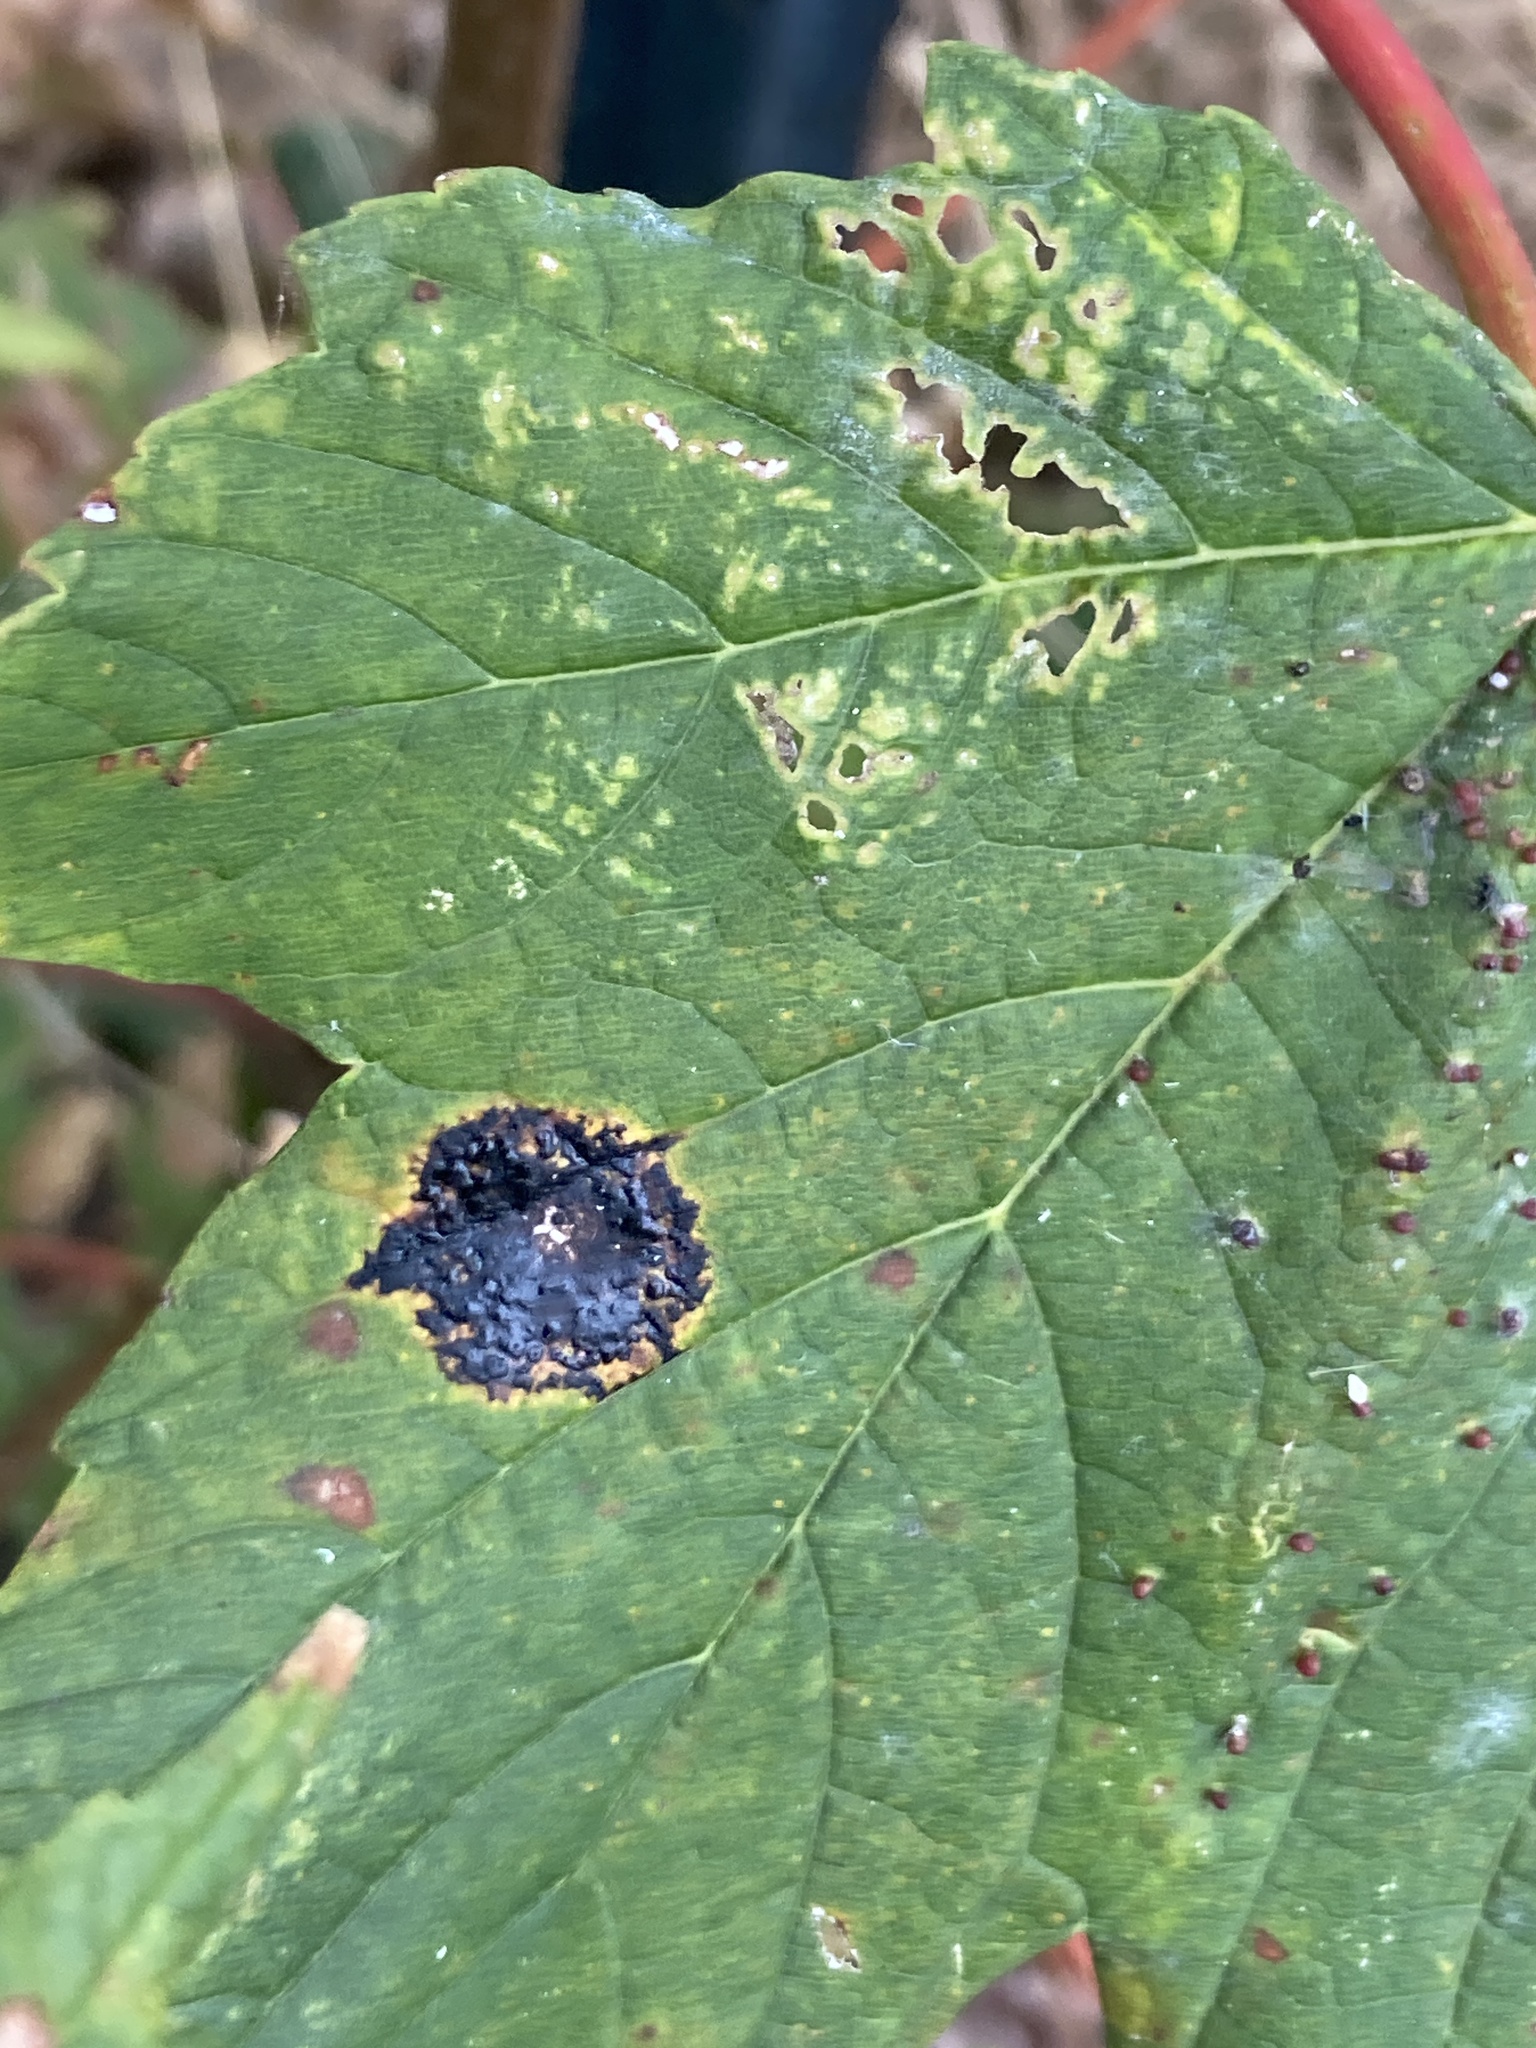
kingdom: Fungi
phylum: Ascomycota
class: Leotiomycetes
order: Rhytismatales
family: Rhytismataceae
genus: Rhytisma
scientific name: Rhytisma acerinum
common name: European tar spot
